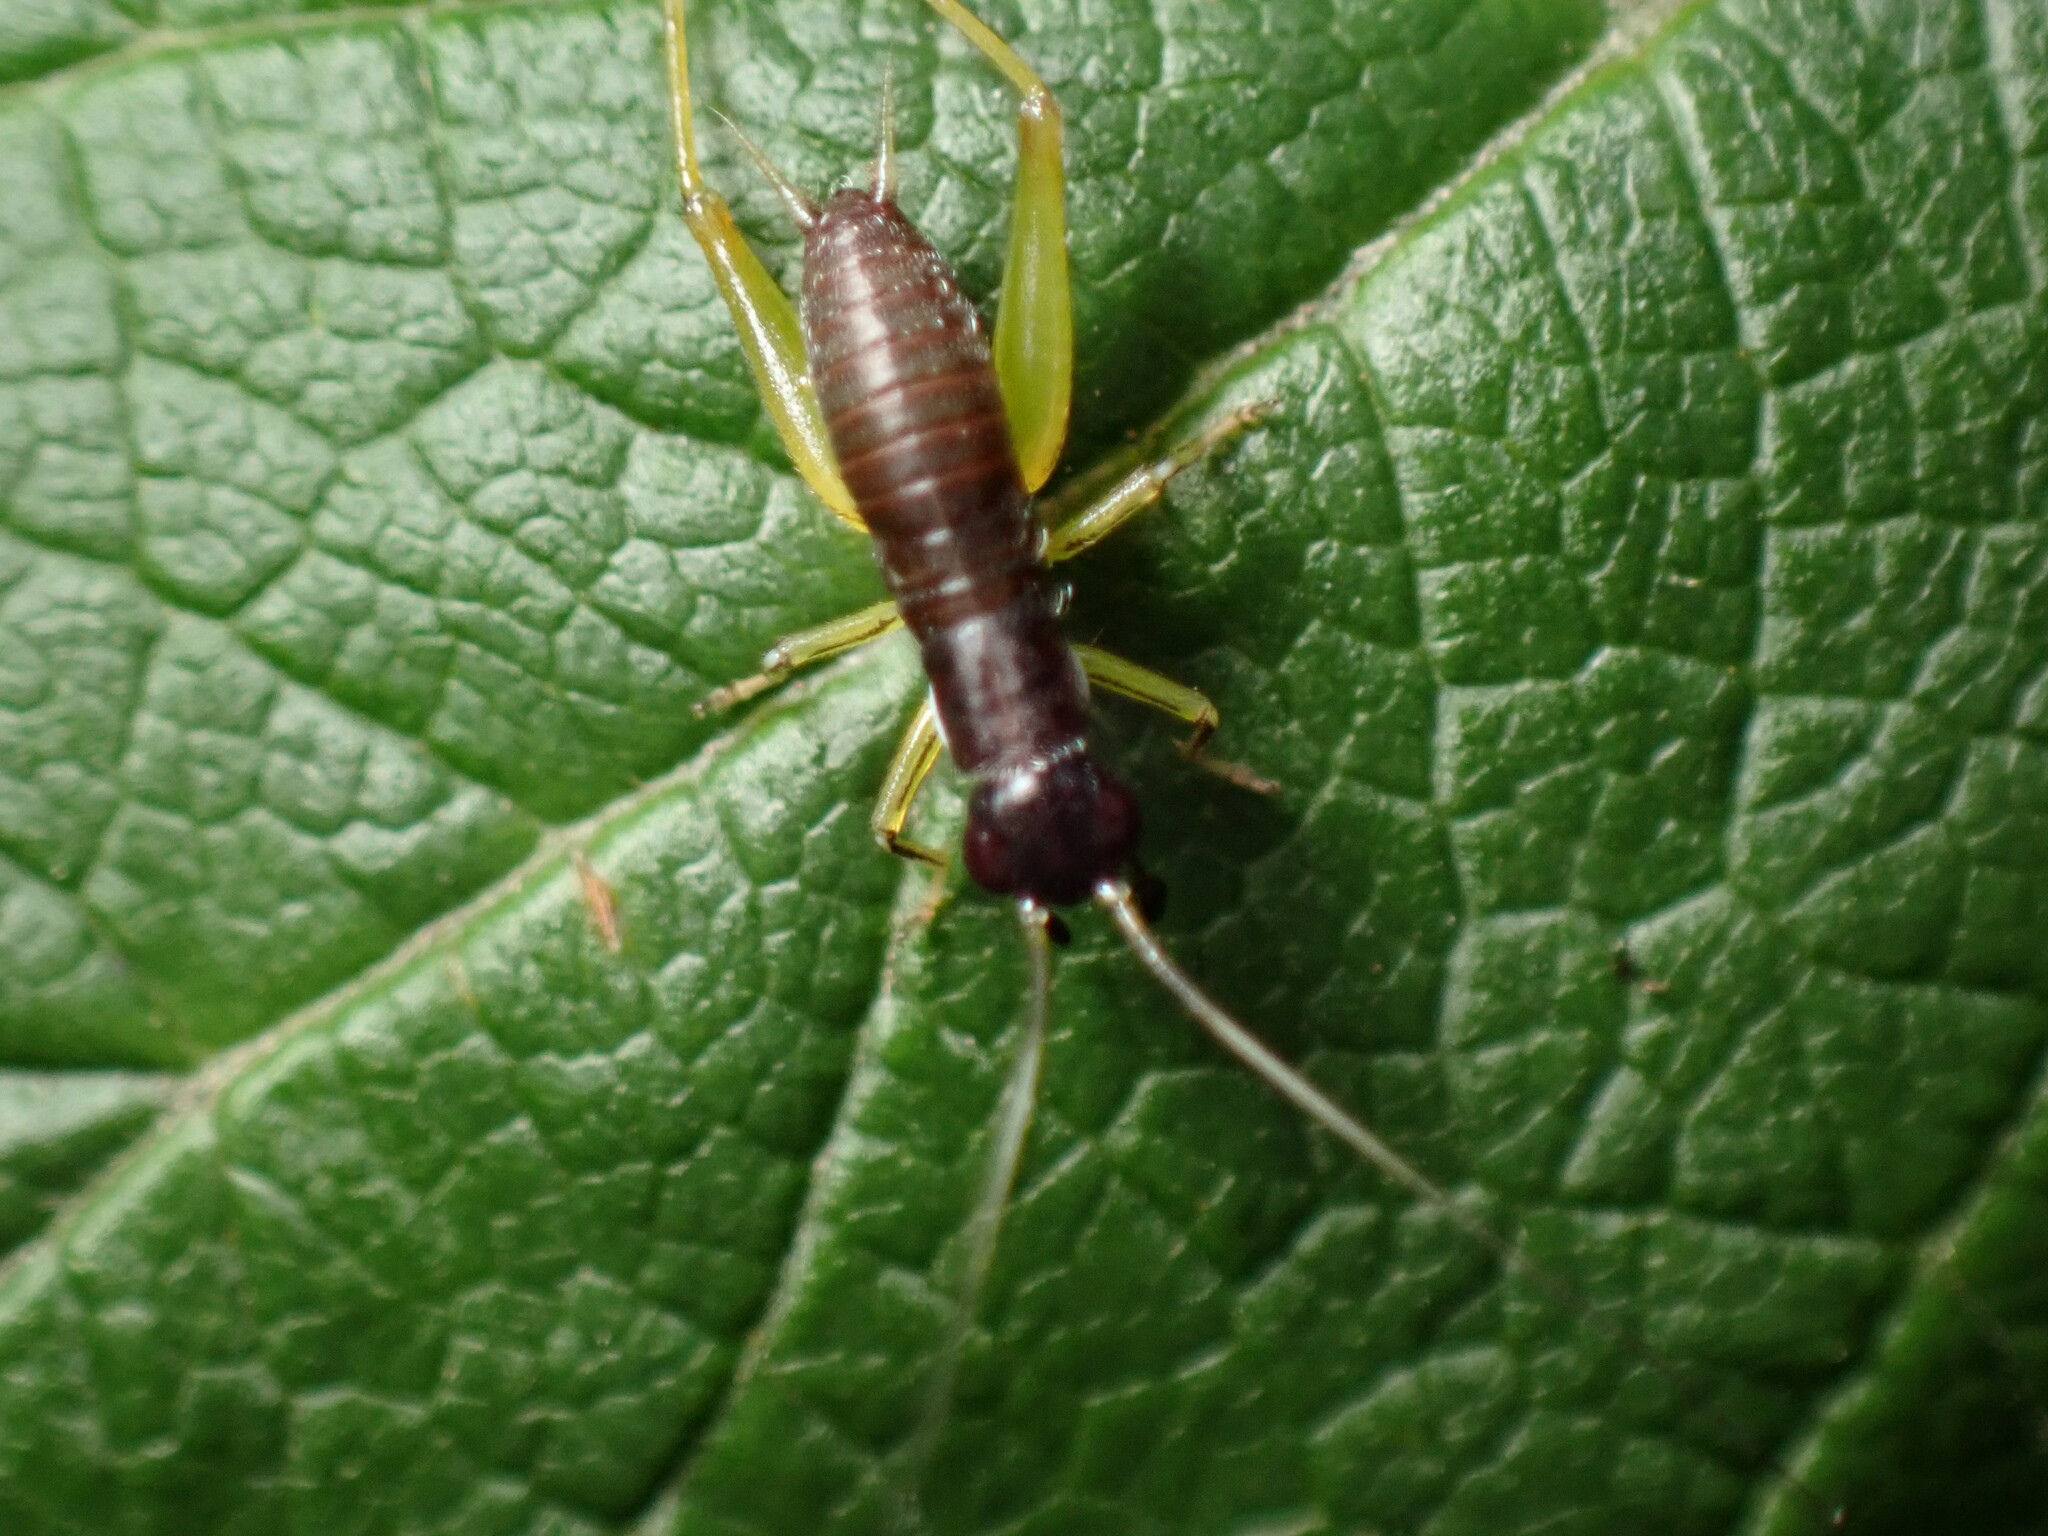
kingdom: Animalia
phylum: Arthropoda
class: Insecta
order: Orthoptera
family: Trigonidiidae
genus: Phyllopalpus
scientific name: Phyllopalpus pulchellus
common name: Handsome trig
